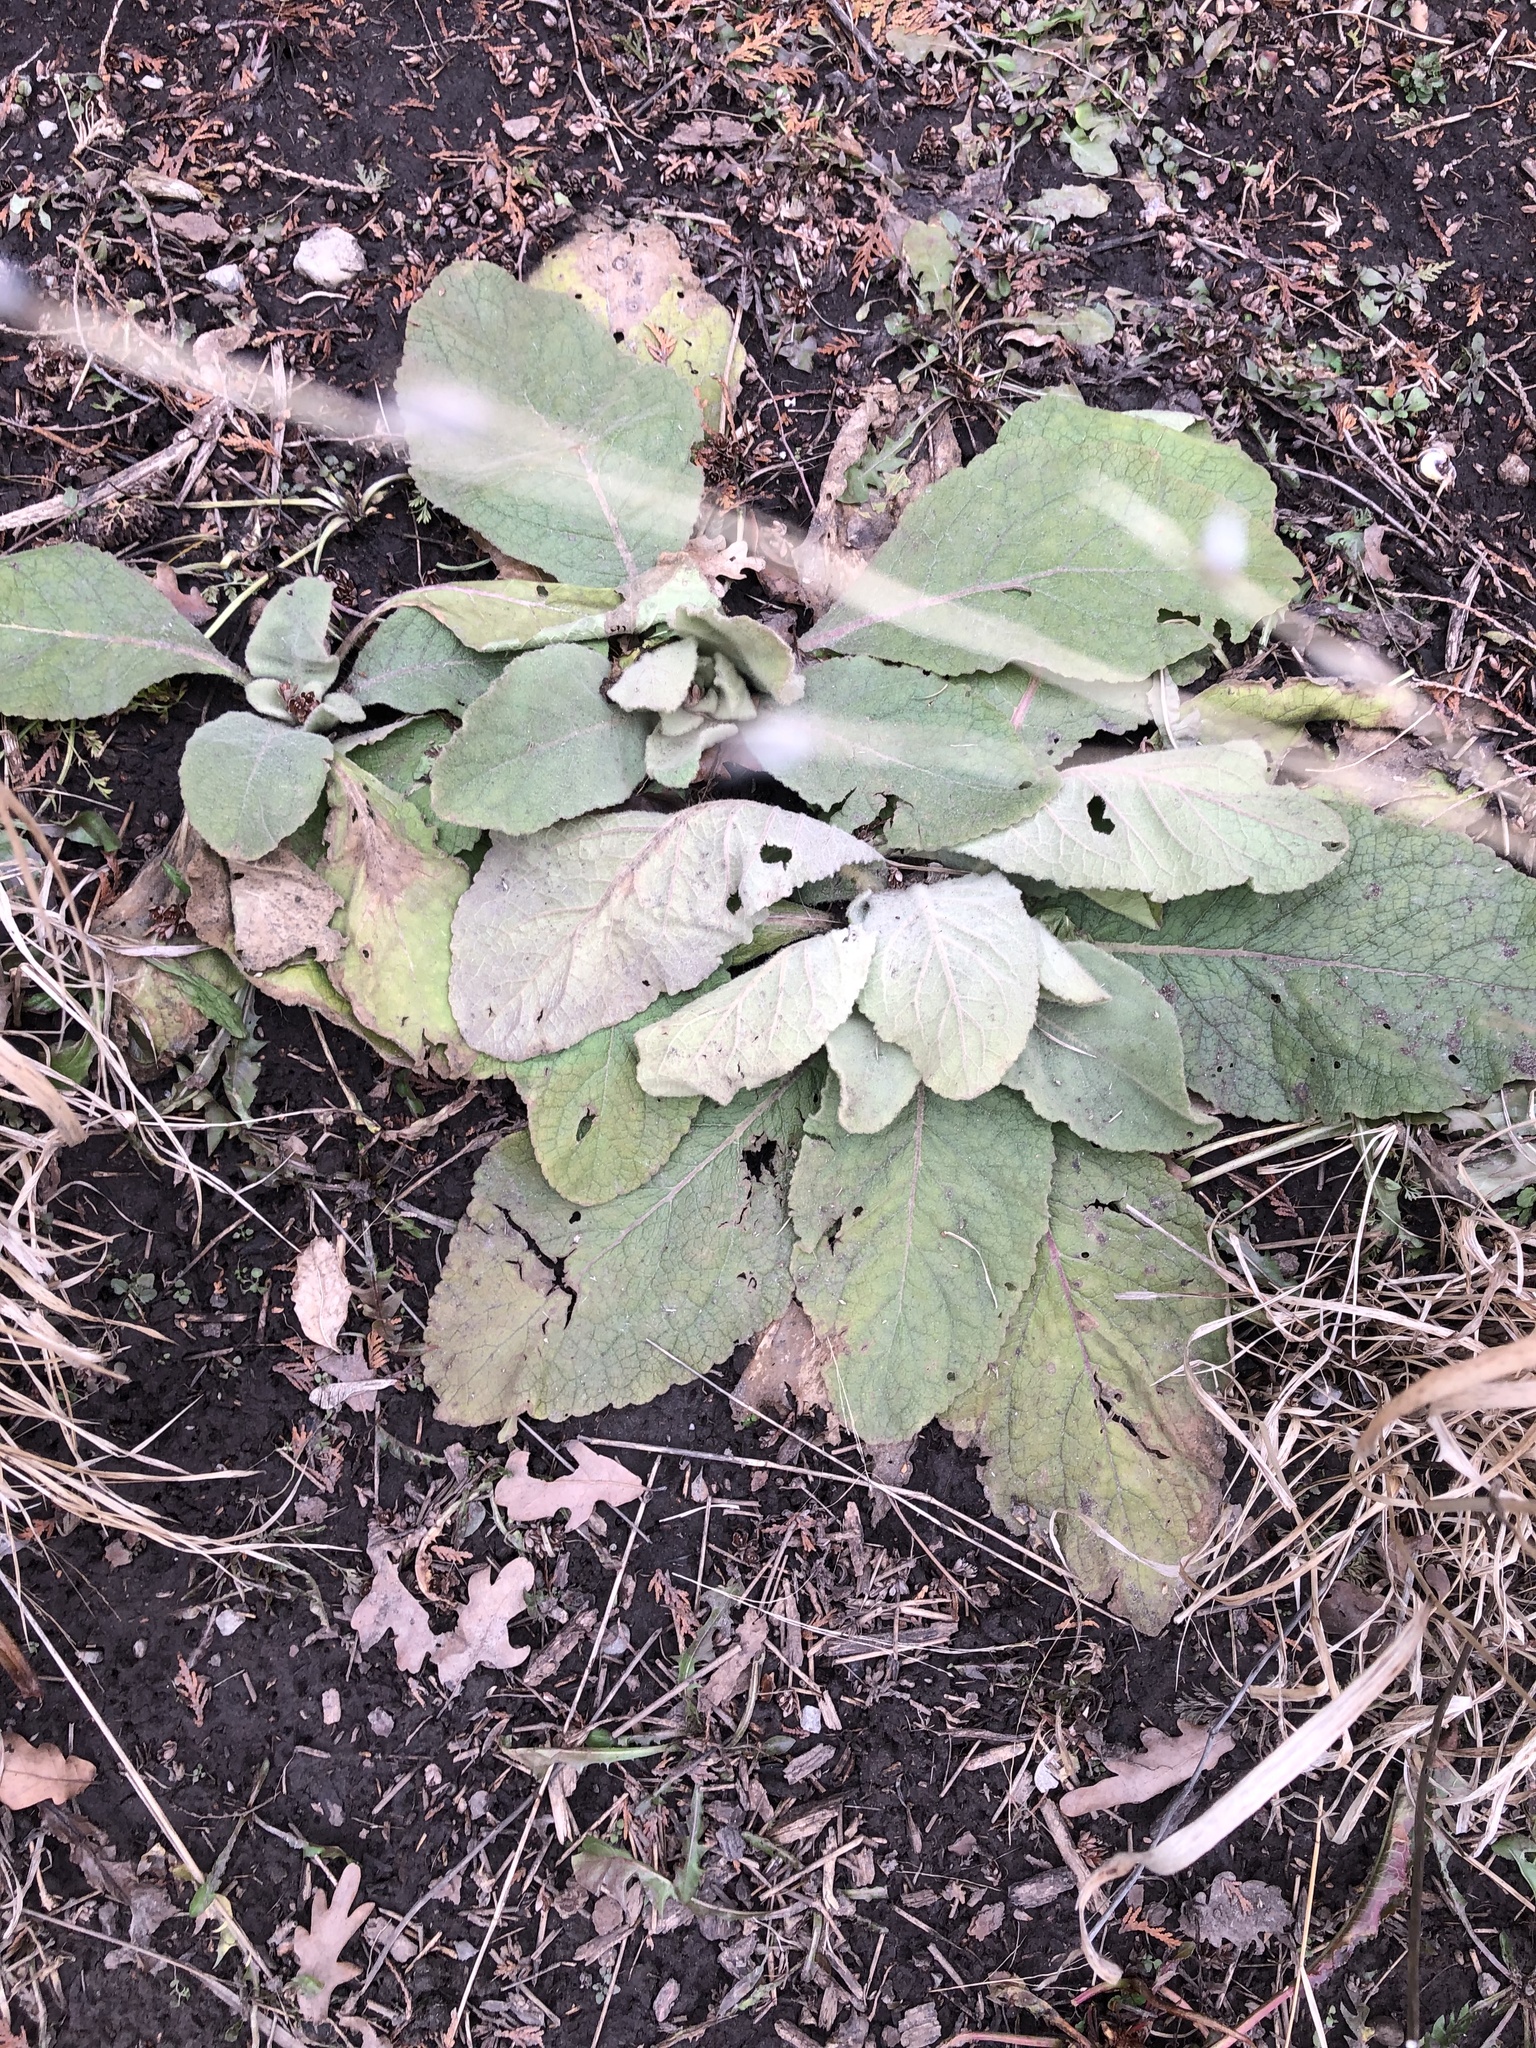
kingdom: Plantae
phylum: Tracheophyta
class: Magnoliopsida
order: Lamiales
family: Scrophulariaceae
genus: Verbascum
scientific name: Verbascum thapsus
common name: Common mullein
